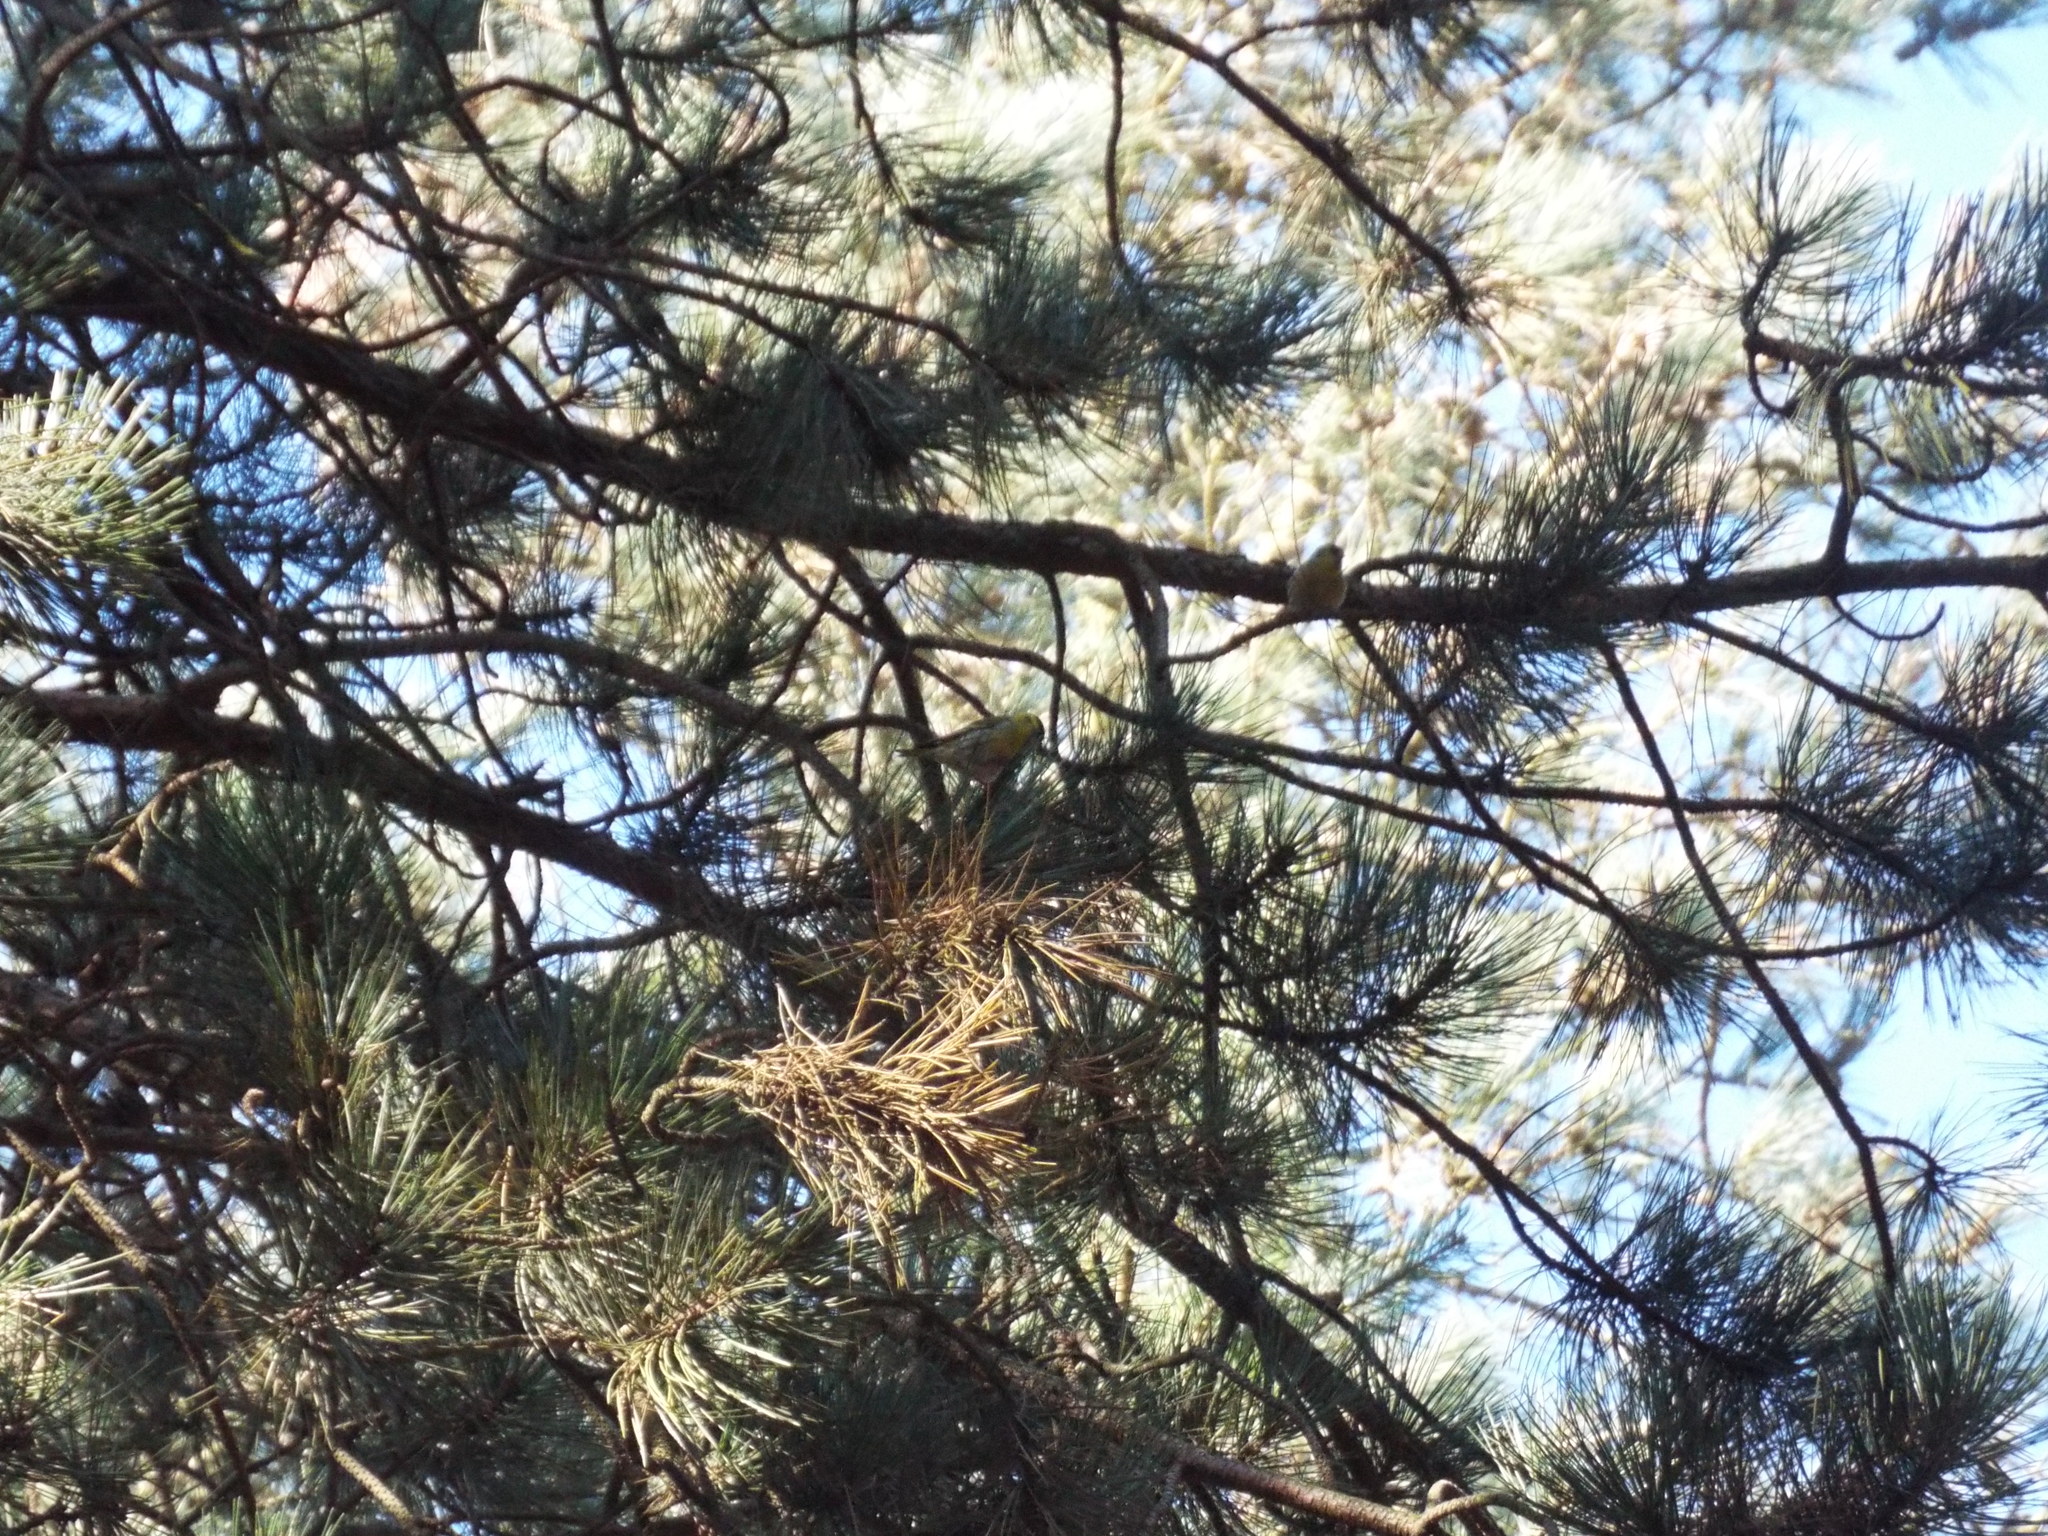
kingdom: Animalia
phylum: Chordata
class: Aves
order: Passeriformes
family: Fringillidae
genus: Spinus
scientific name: Spinus spinus
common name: Eurasian siskin
